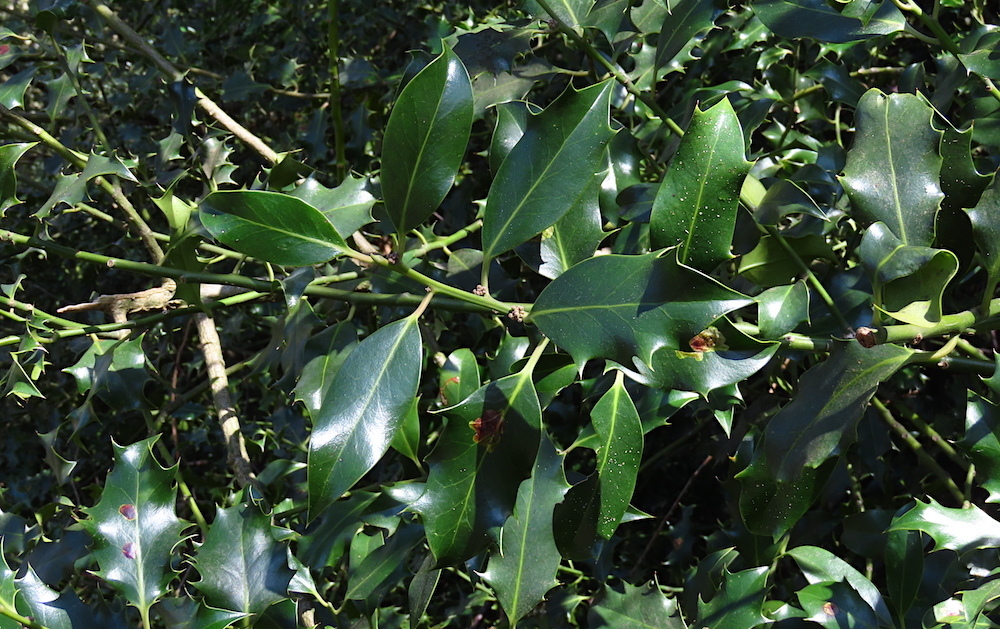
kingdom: Plantae
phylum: Tracheophyta
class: Magnoliopsida
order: Aquifoliales
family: Aquifoliaceae
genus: Ilex
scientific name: Ilex aquifolium
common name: English holly
